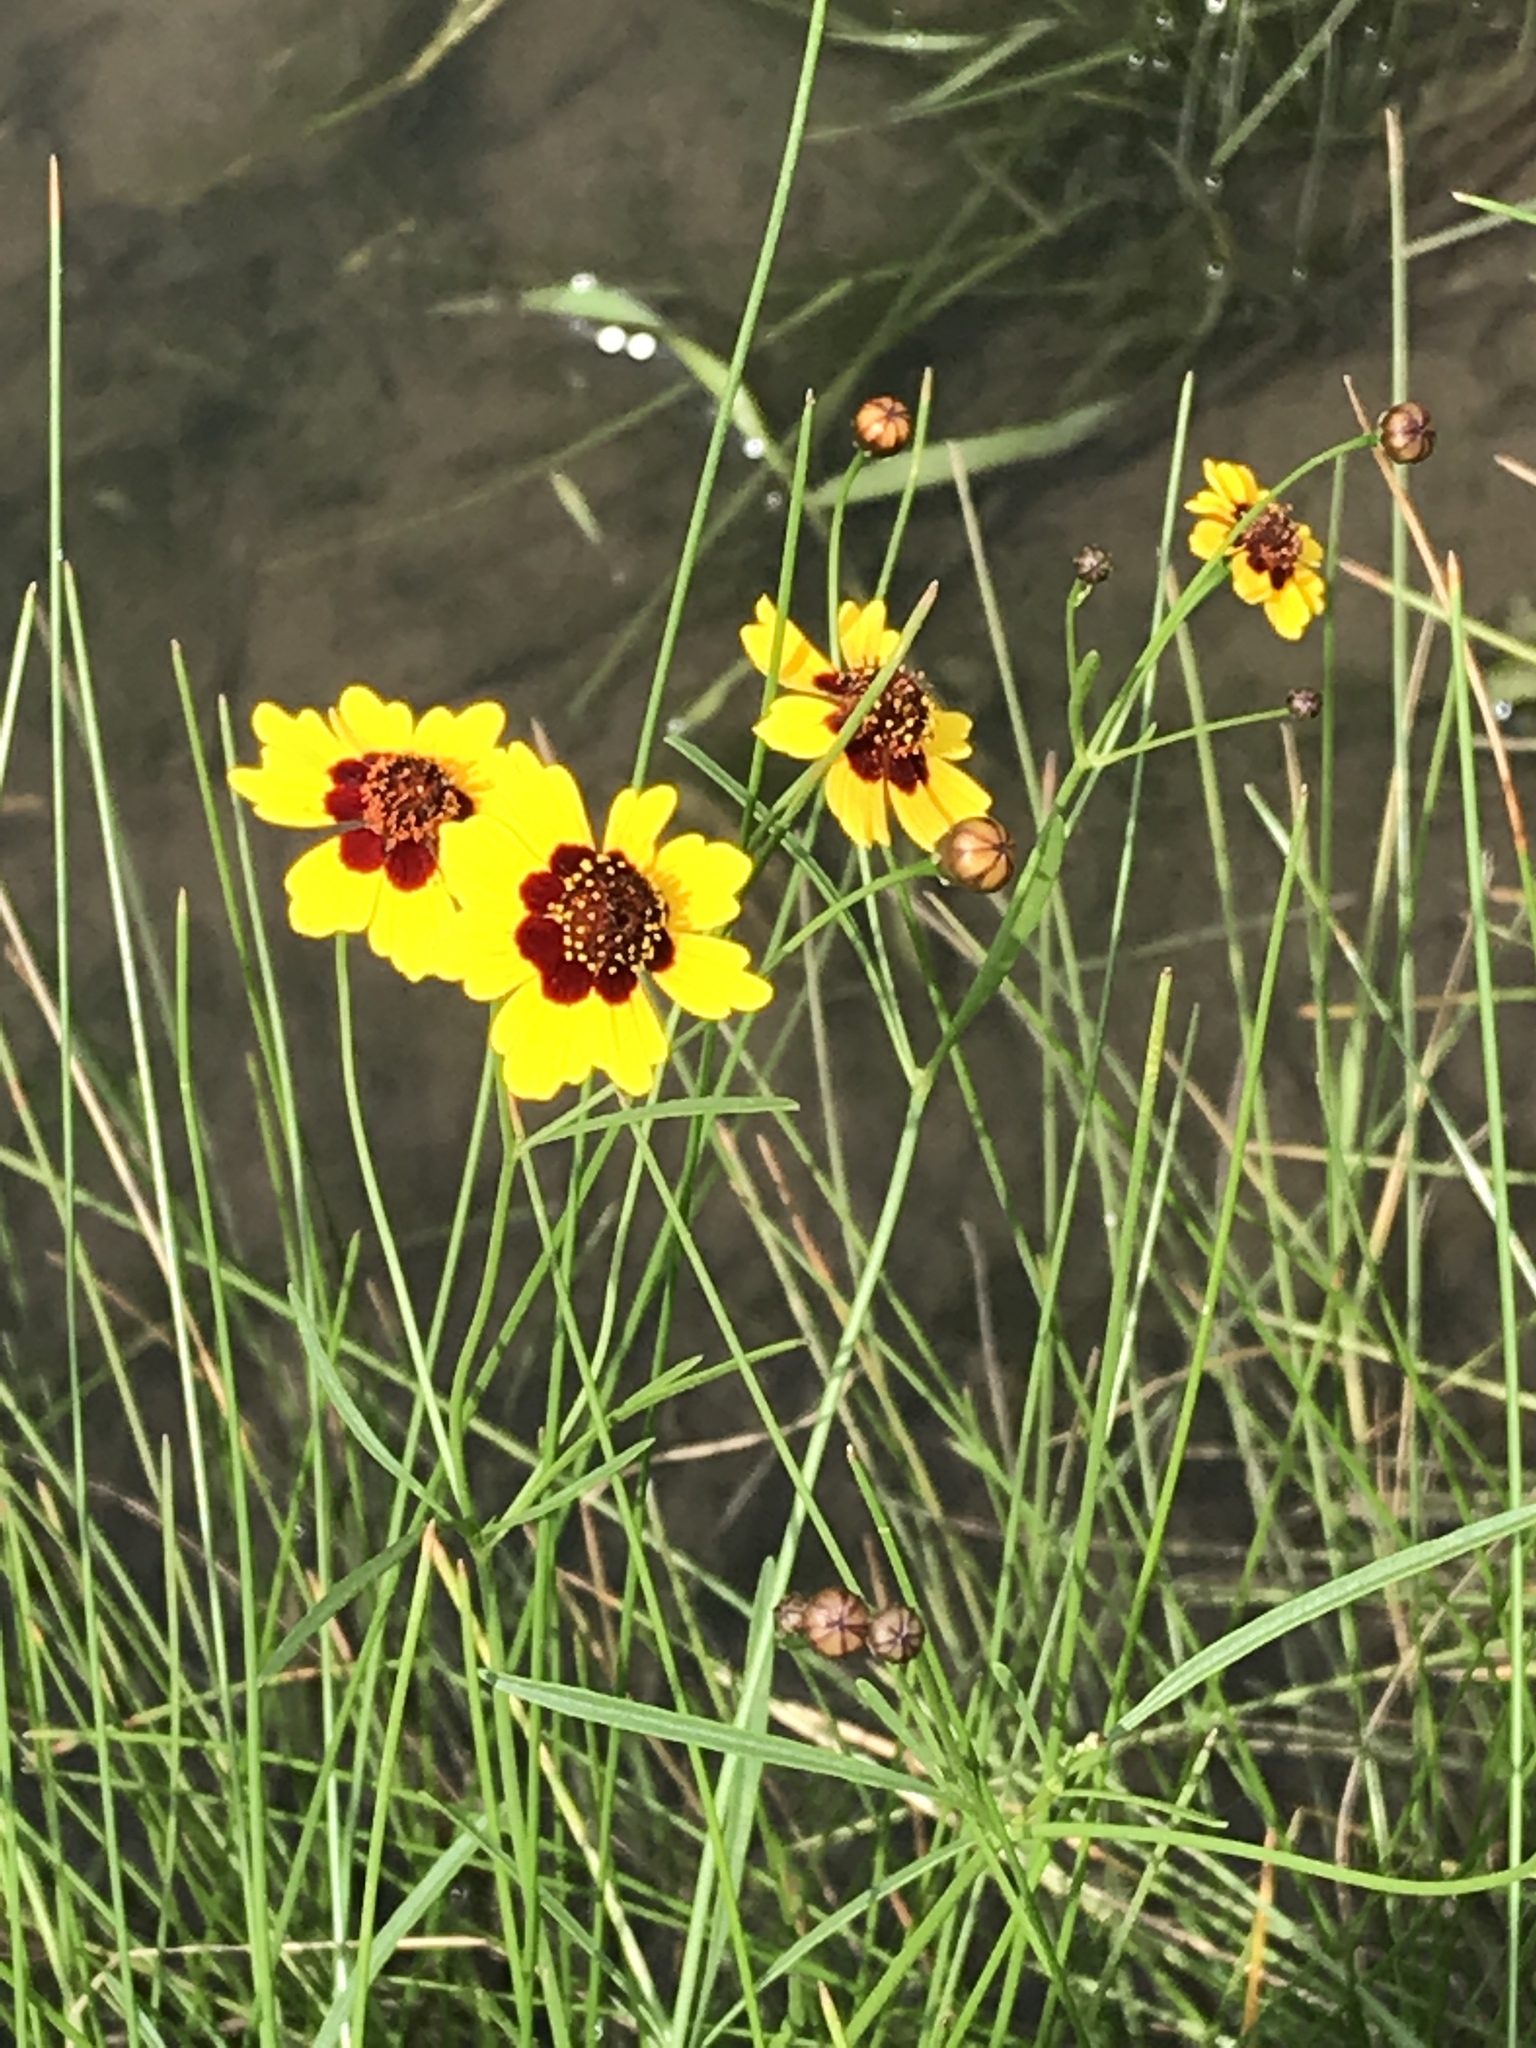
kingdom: Plantae
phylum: Tracheophyta
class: Magnoliopsida
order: Asterales
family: Asteraceae
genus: Coreopsis
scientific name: Coreopsis tinctoria
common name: Garden tickseed
